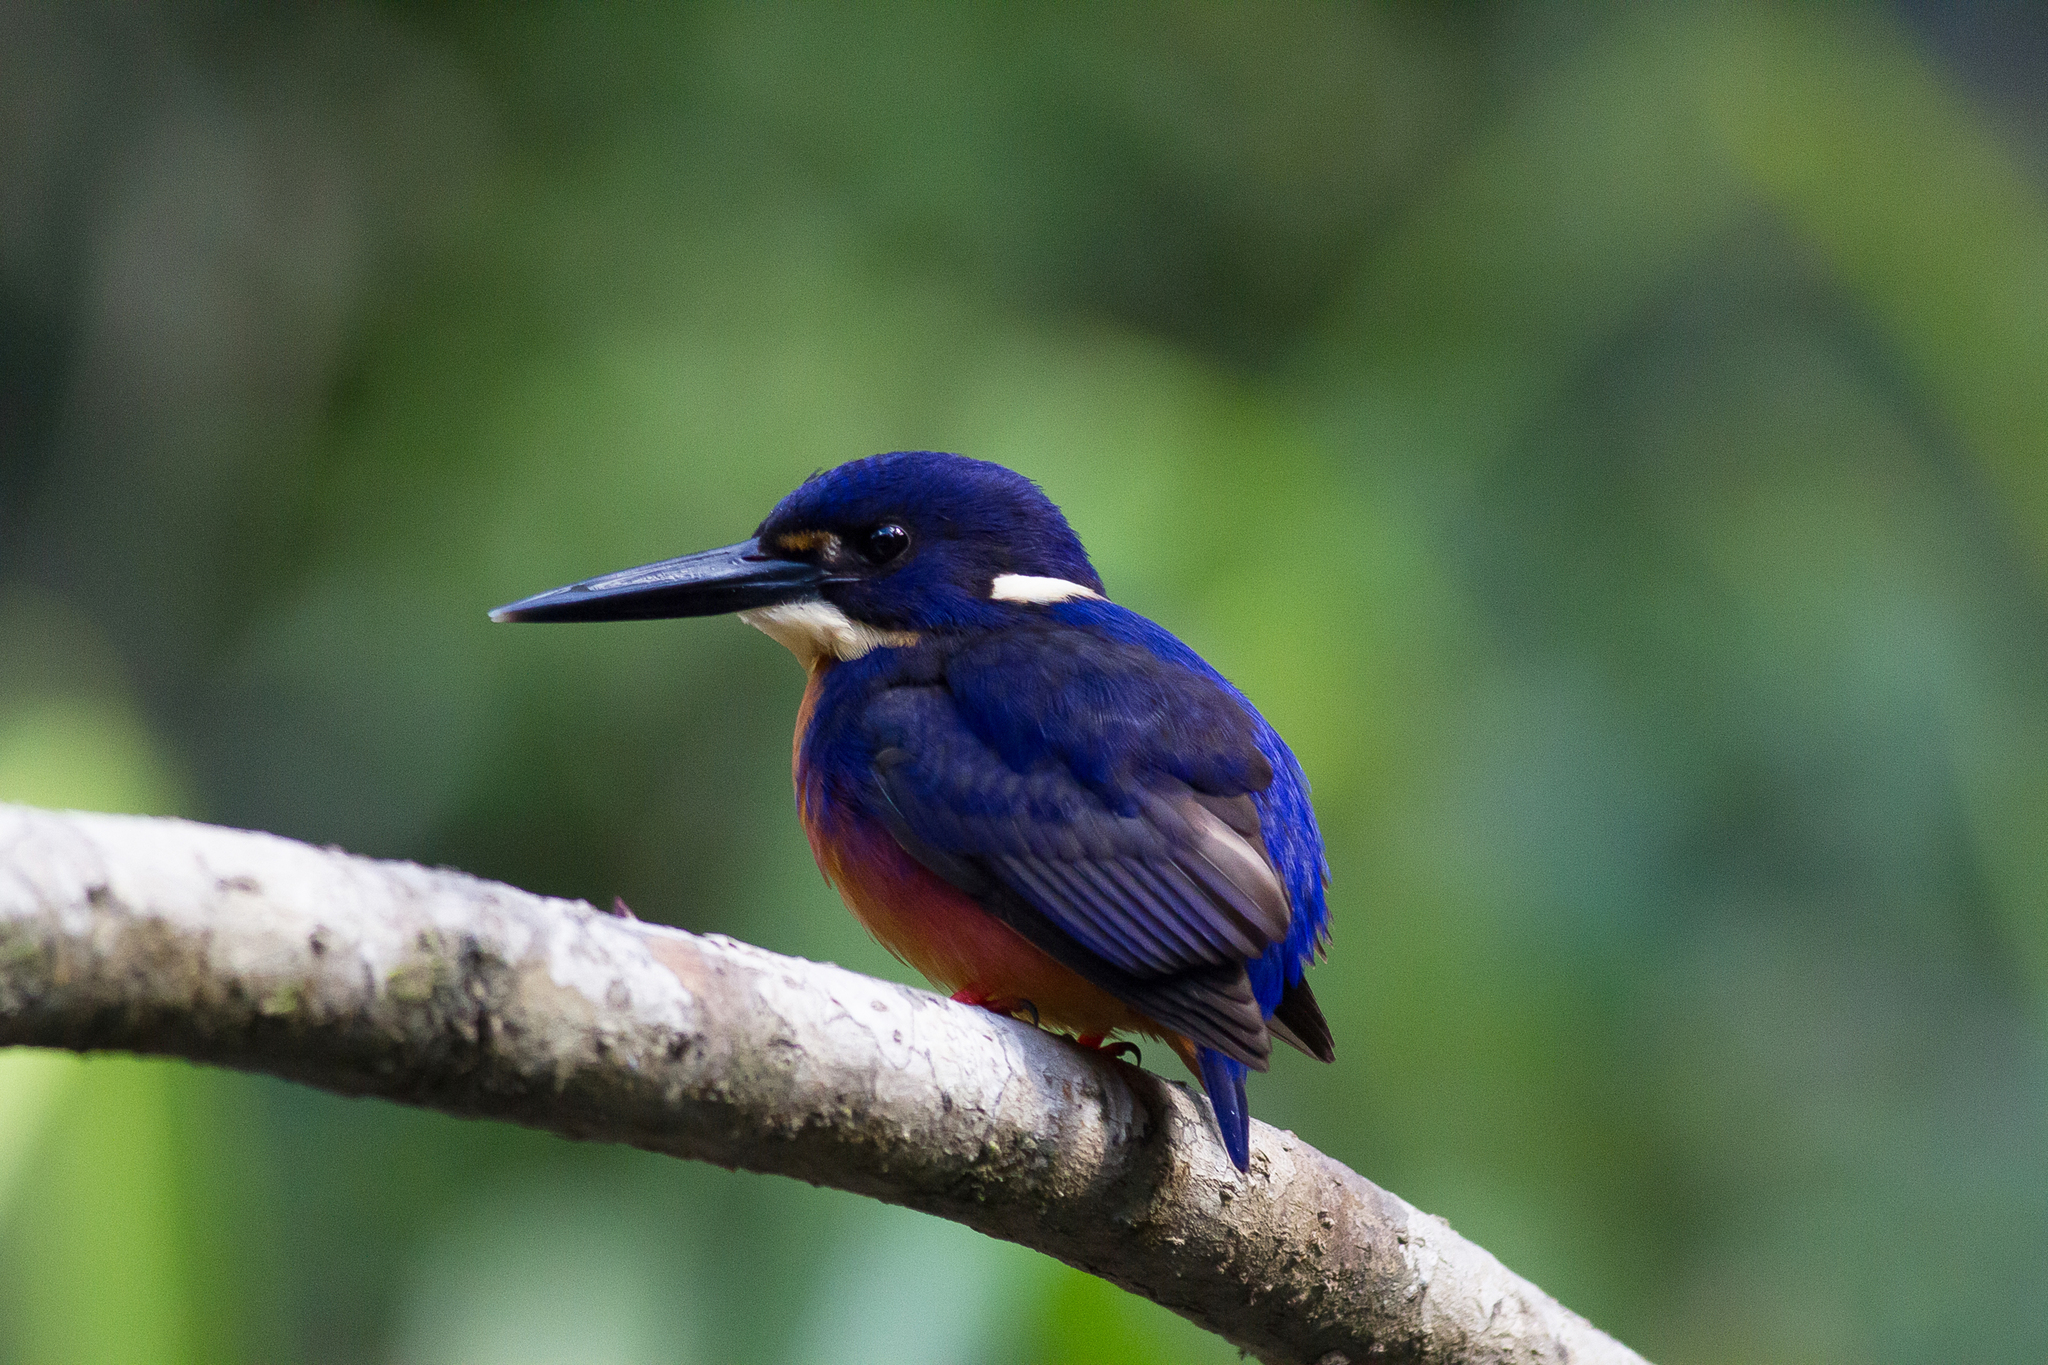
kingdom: Animalia
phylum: Chordata
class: Aves
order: Coraciiformes
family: Alcedinidae
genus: Ceyx
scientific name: Ceyx azureus
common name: Azure kingfisher
